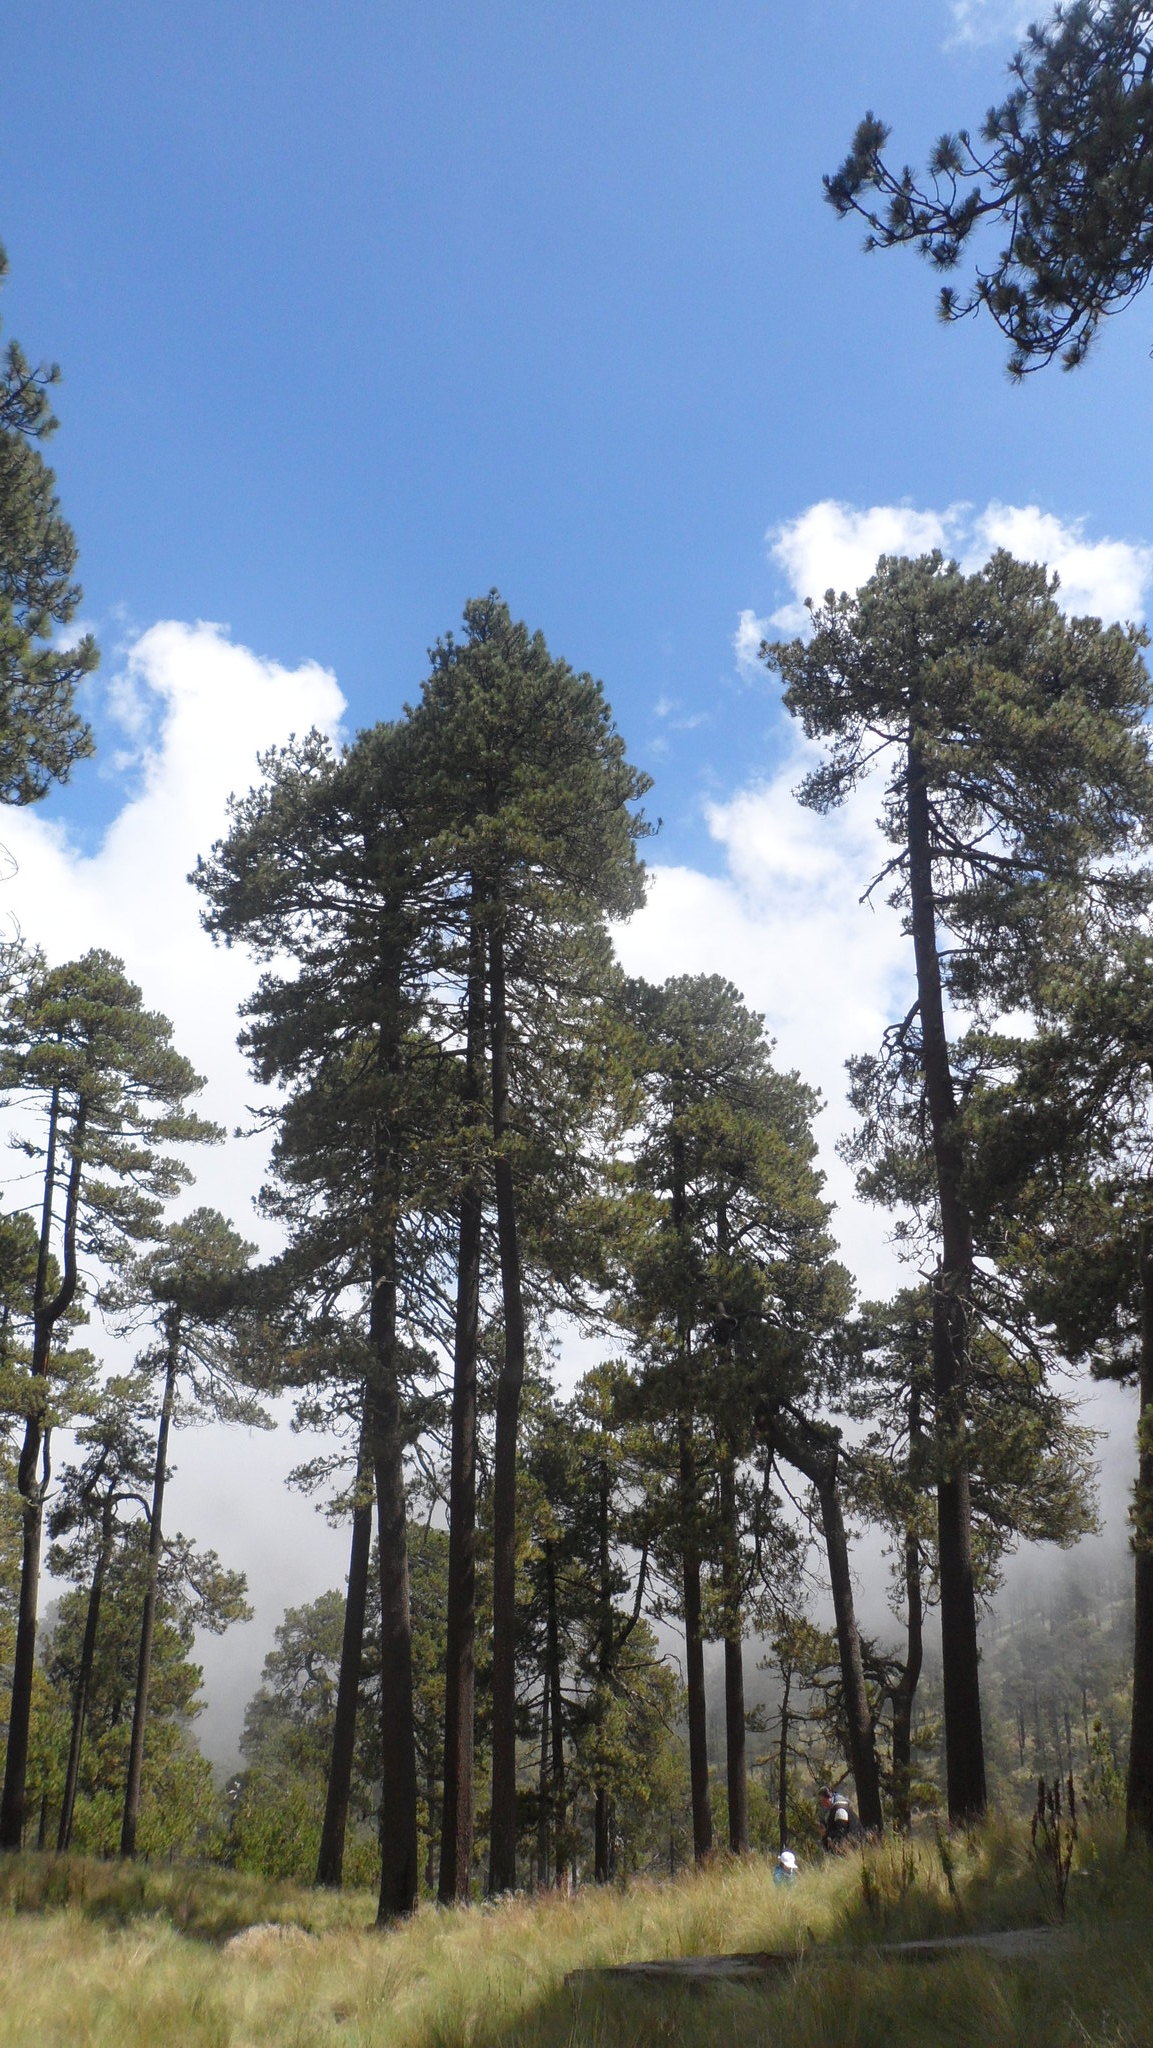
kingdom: Plantae
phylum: Tracheophyta
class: Pinopsida
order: Pinales
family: Pinaceae
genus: Pinus
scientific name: Pinus hartwegii
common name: Hartweg's pine
